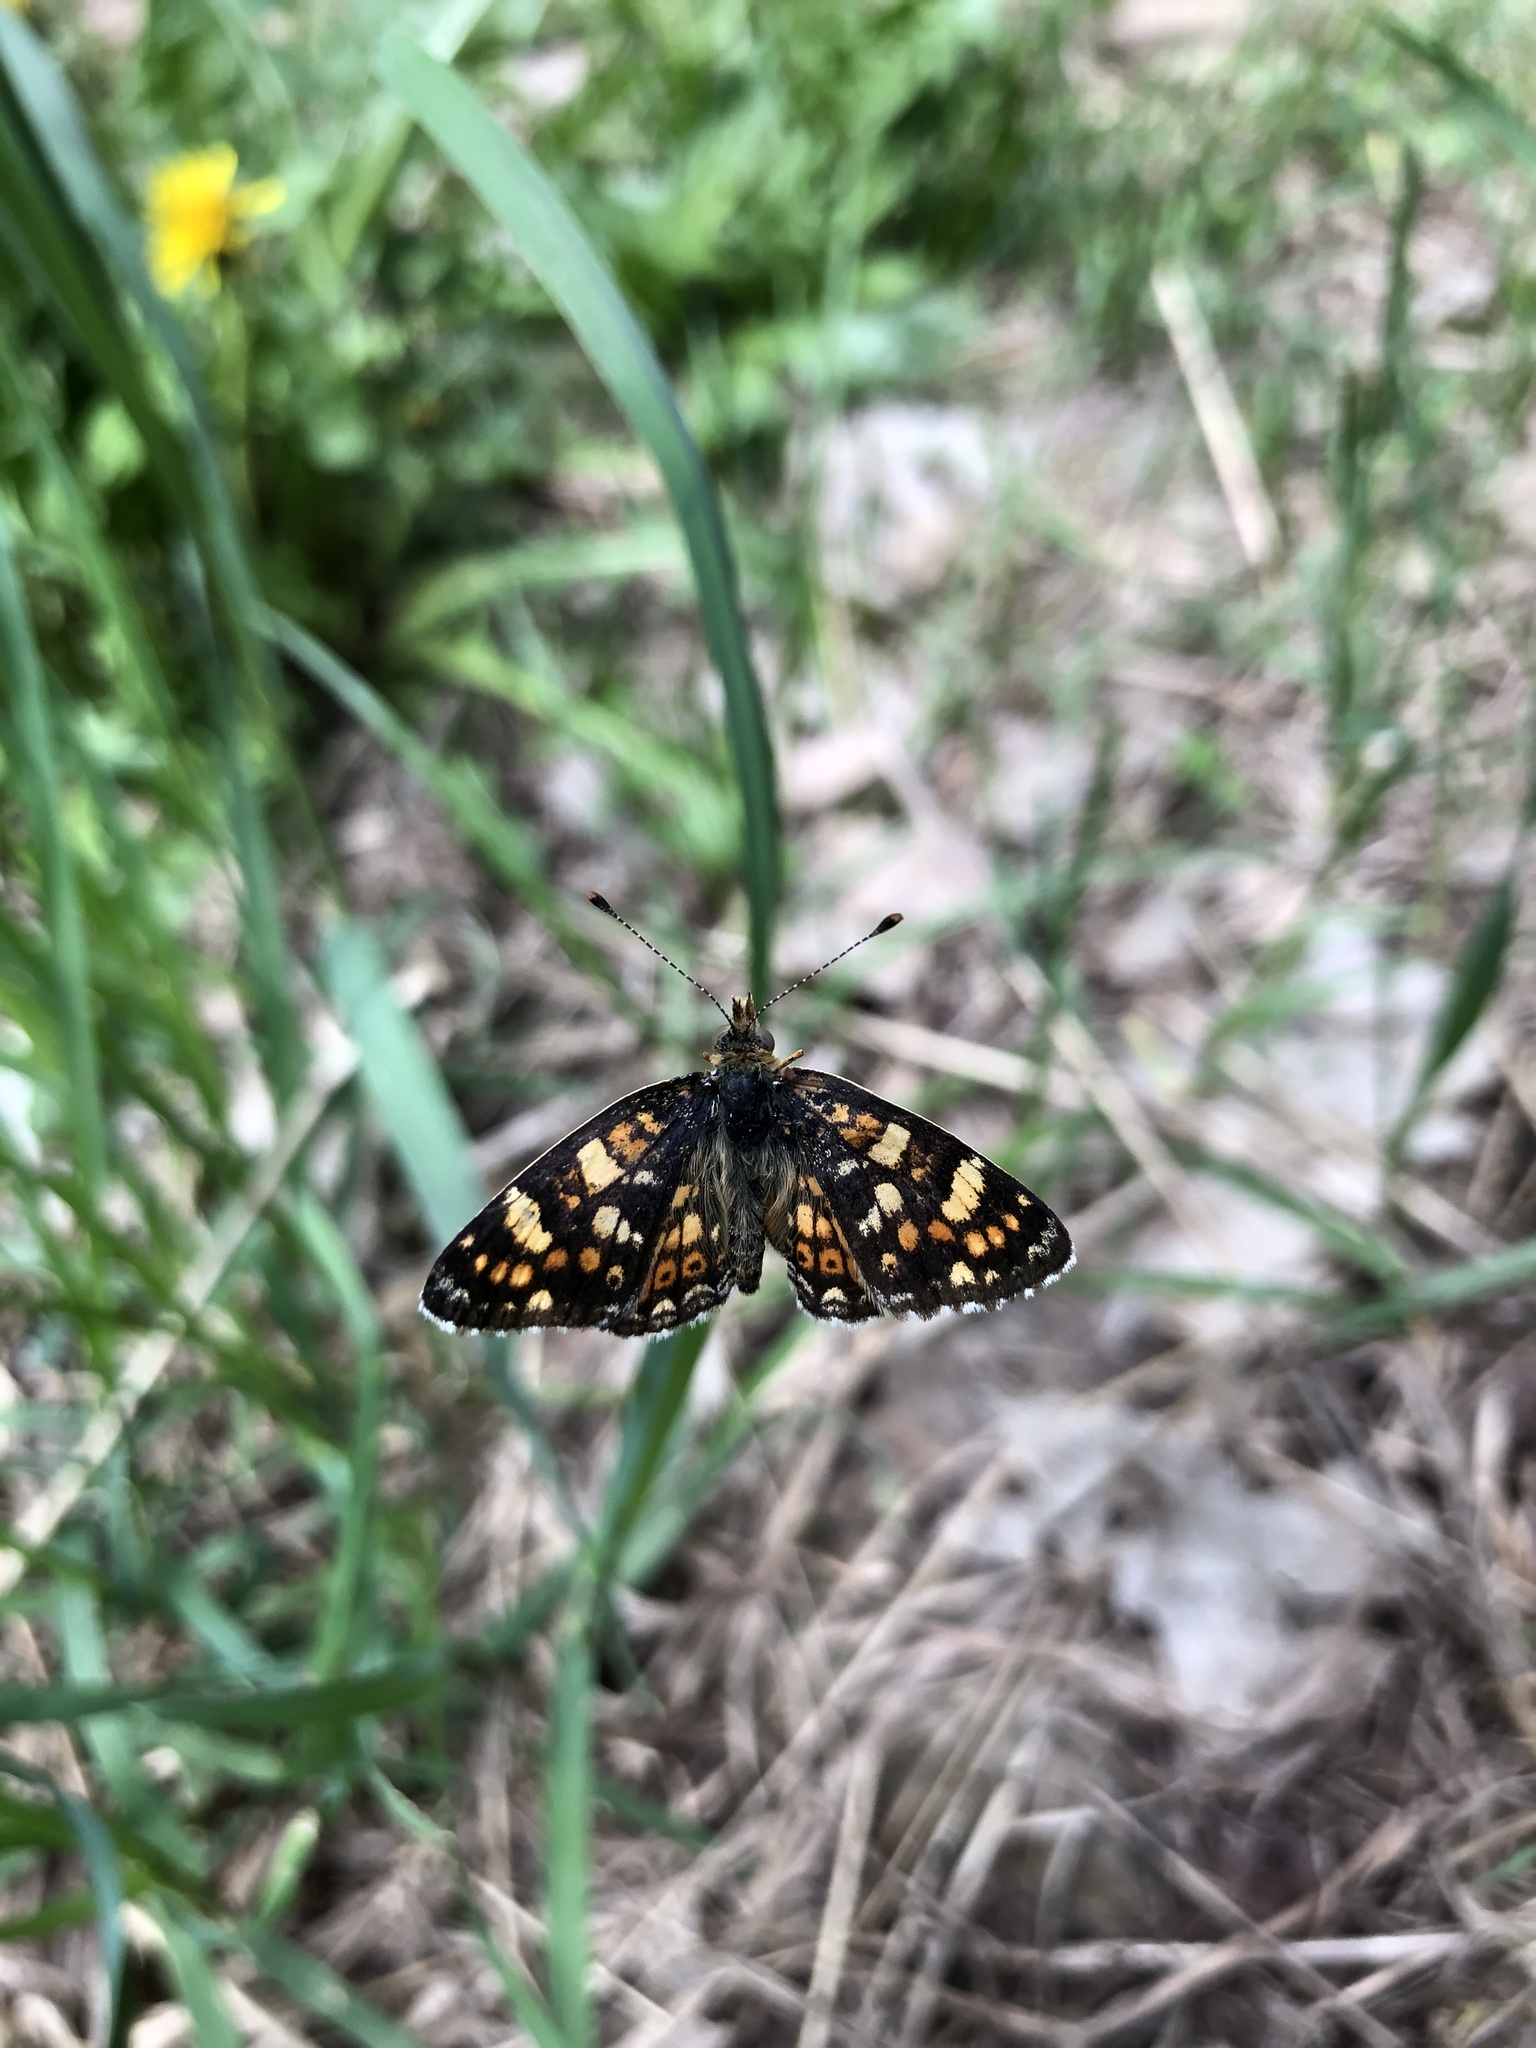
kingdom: Animalia
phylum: Arthropoda
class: Insecta
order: Lepidoptera
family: Nymphalidae
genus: Phyciodes
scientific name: Phyciodes tharos
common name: Pearl crescent
